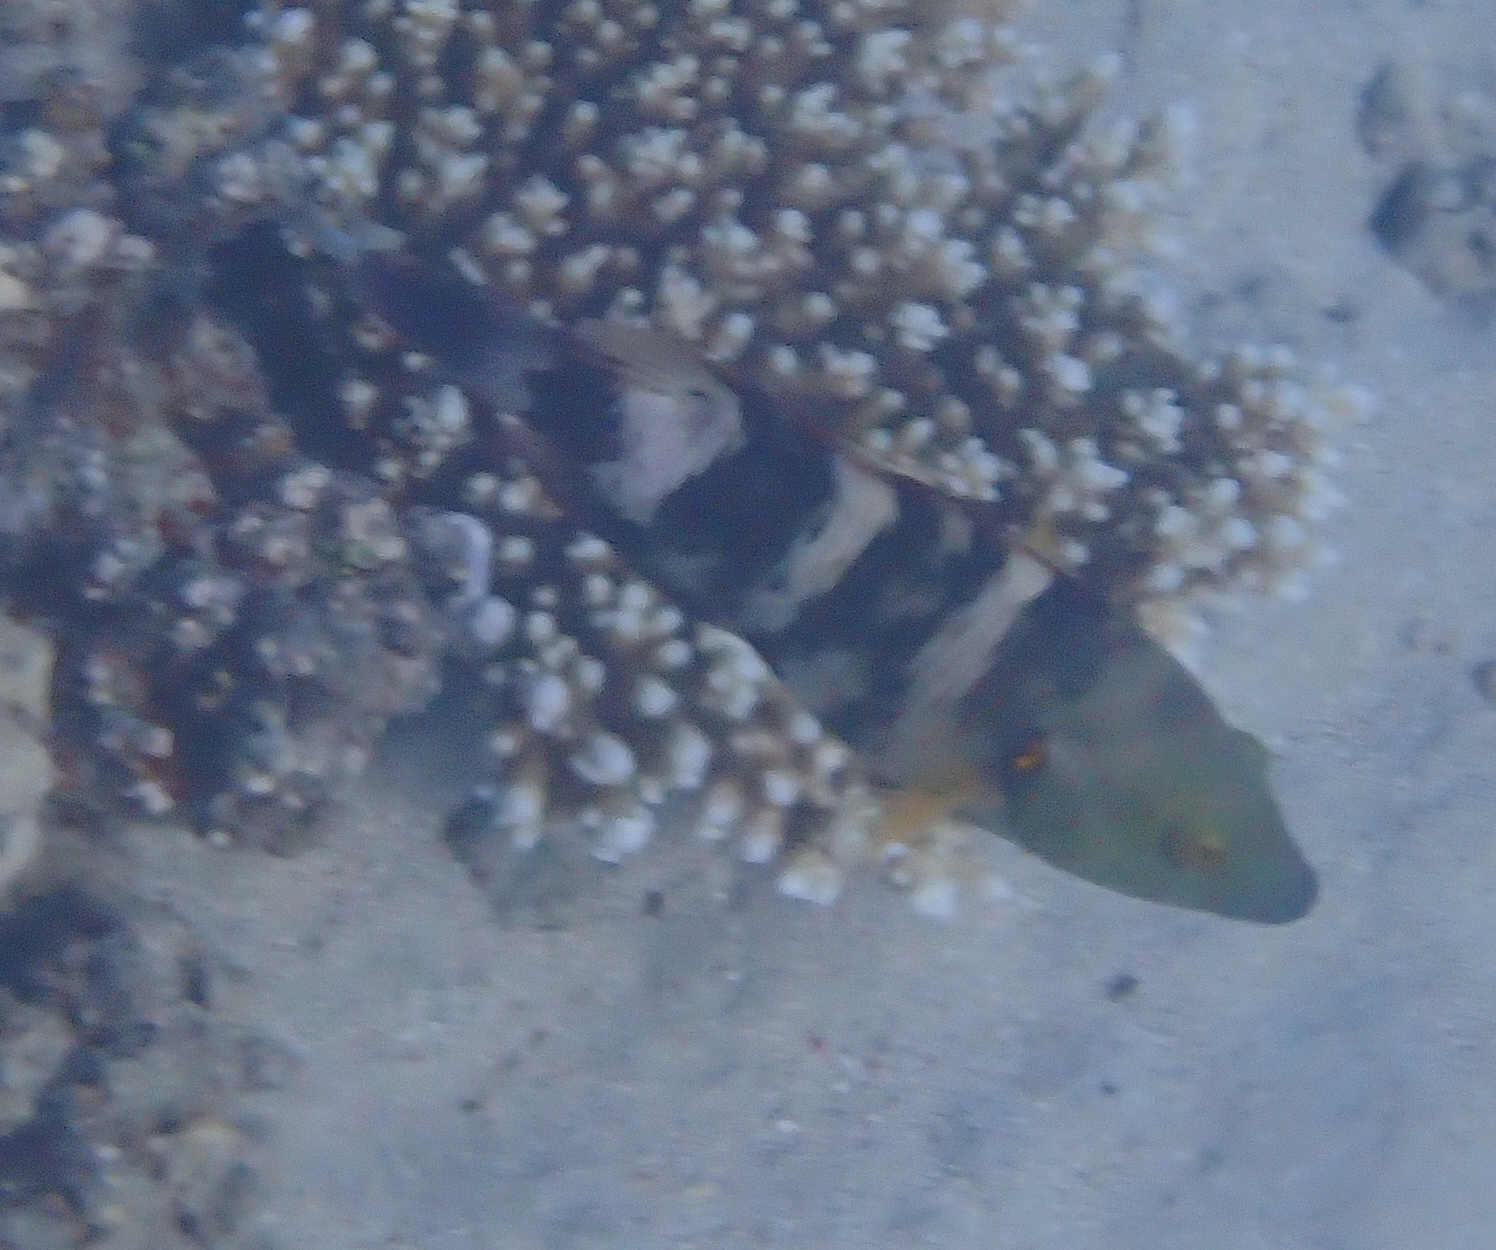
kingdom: Animalia
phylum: Chordata
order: Perciformes
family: Labridae
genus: Cheilinus
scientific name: Cheilinus lunulatus
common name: Broomtail wrasse
